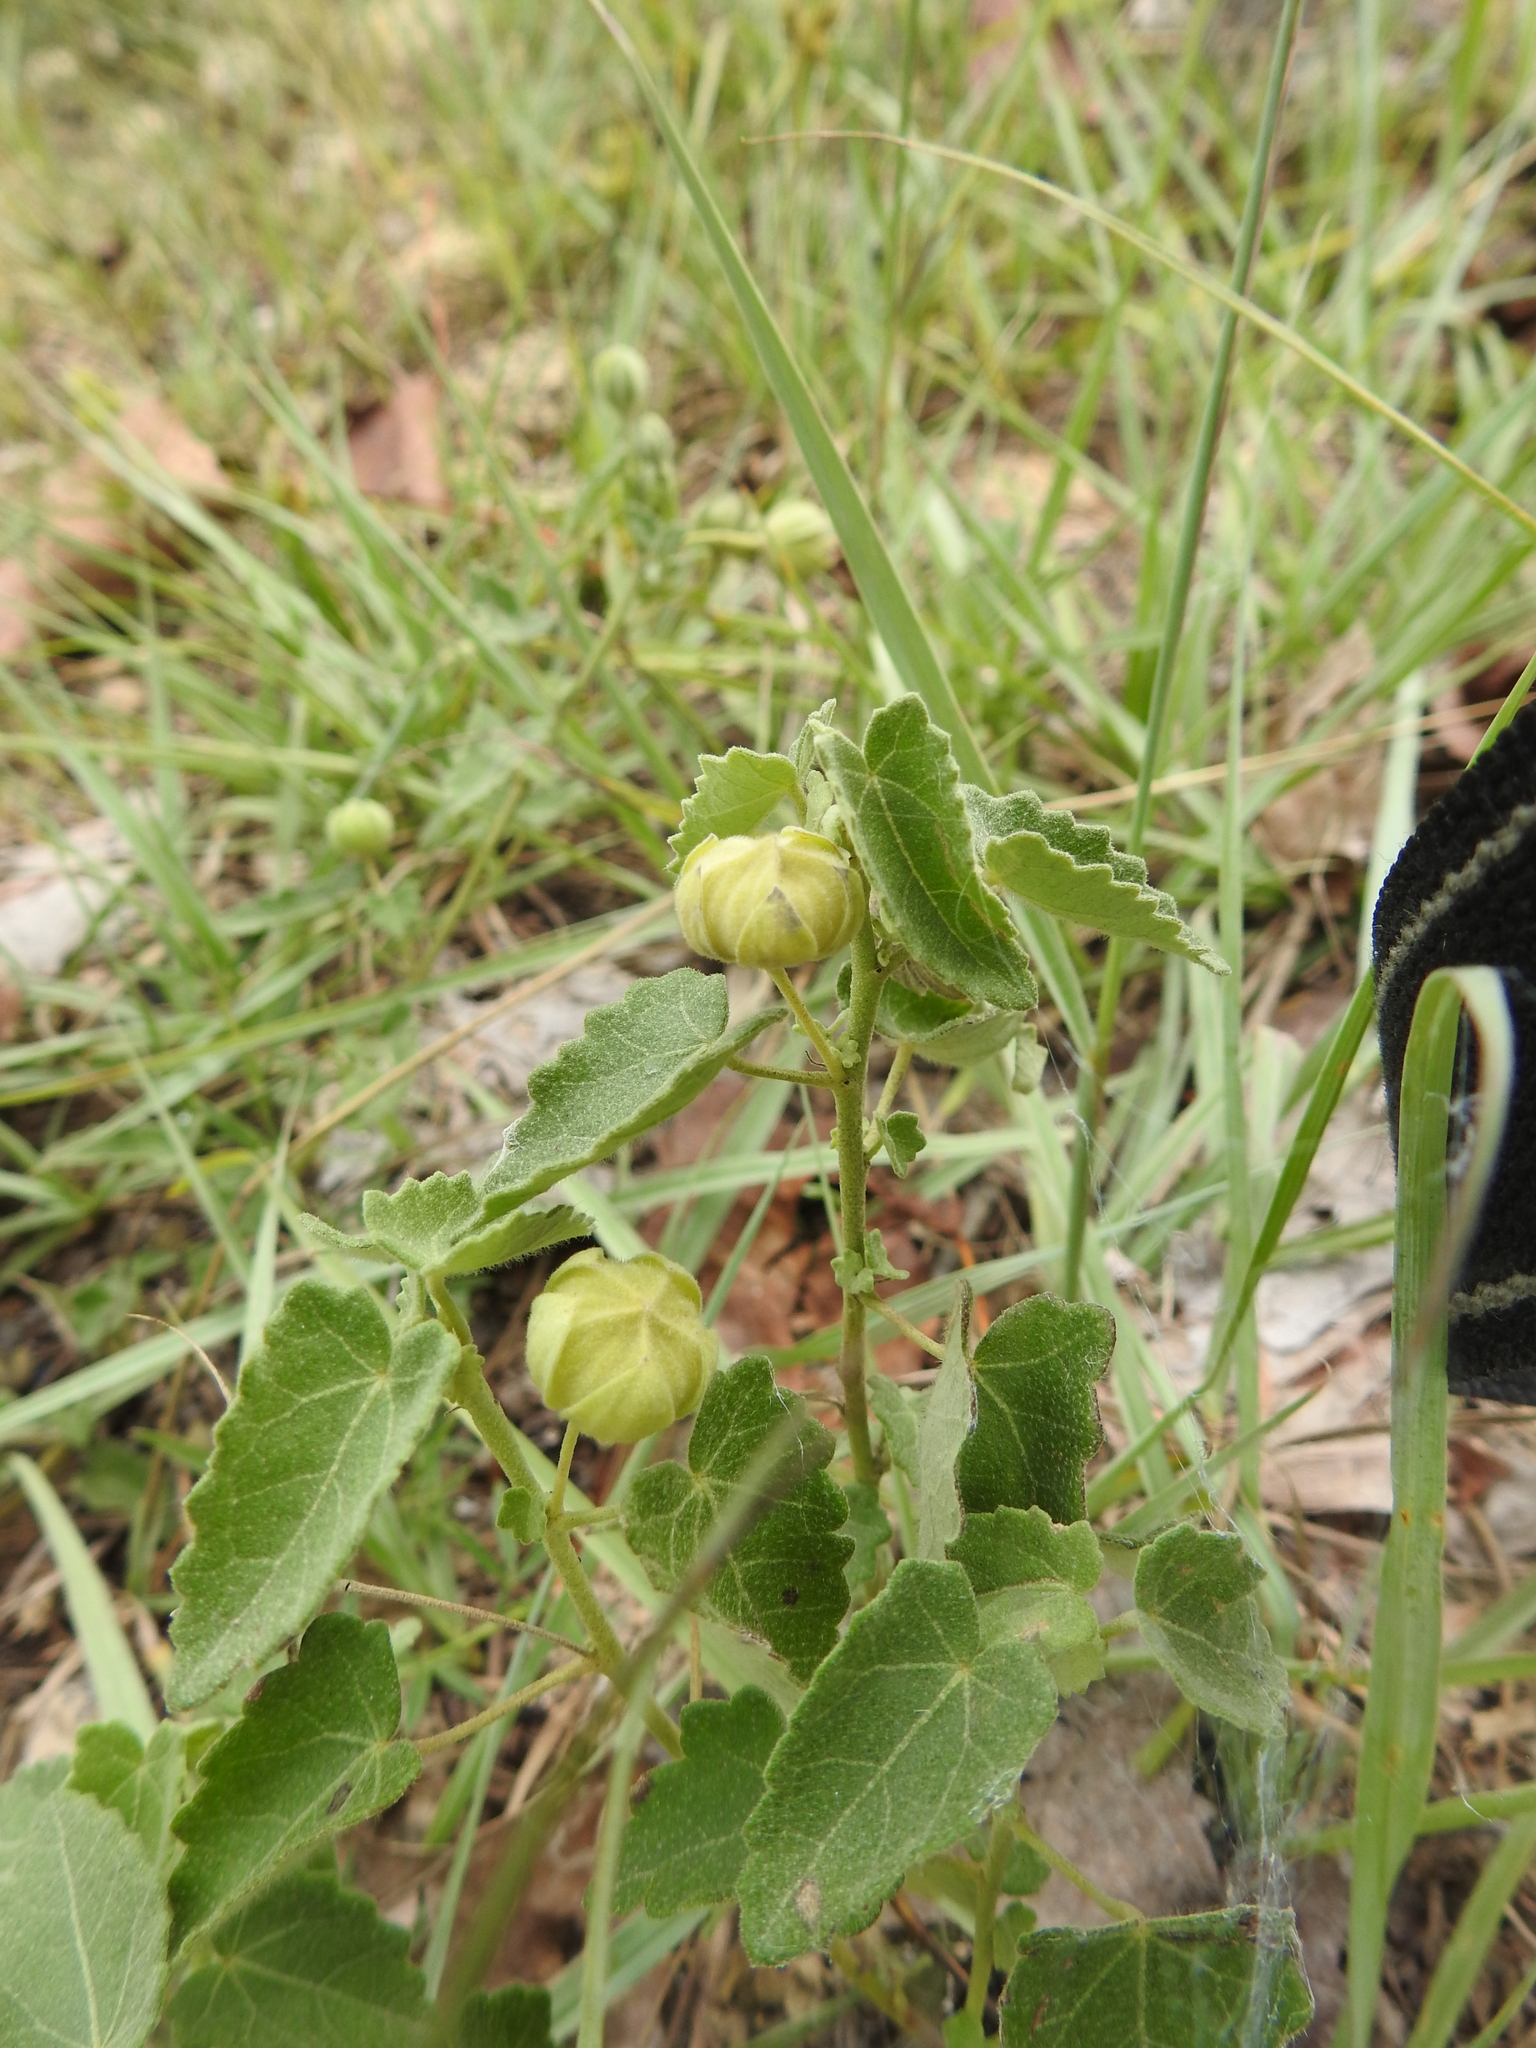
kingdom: Plantae
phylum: Tracheophyta
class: Magnoliopsida
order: Malvales
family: Malvaceae
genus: Pavonia
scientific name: Pavonia aurigloba
